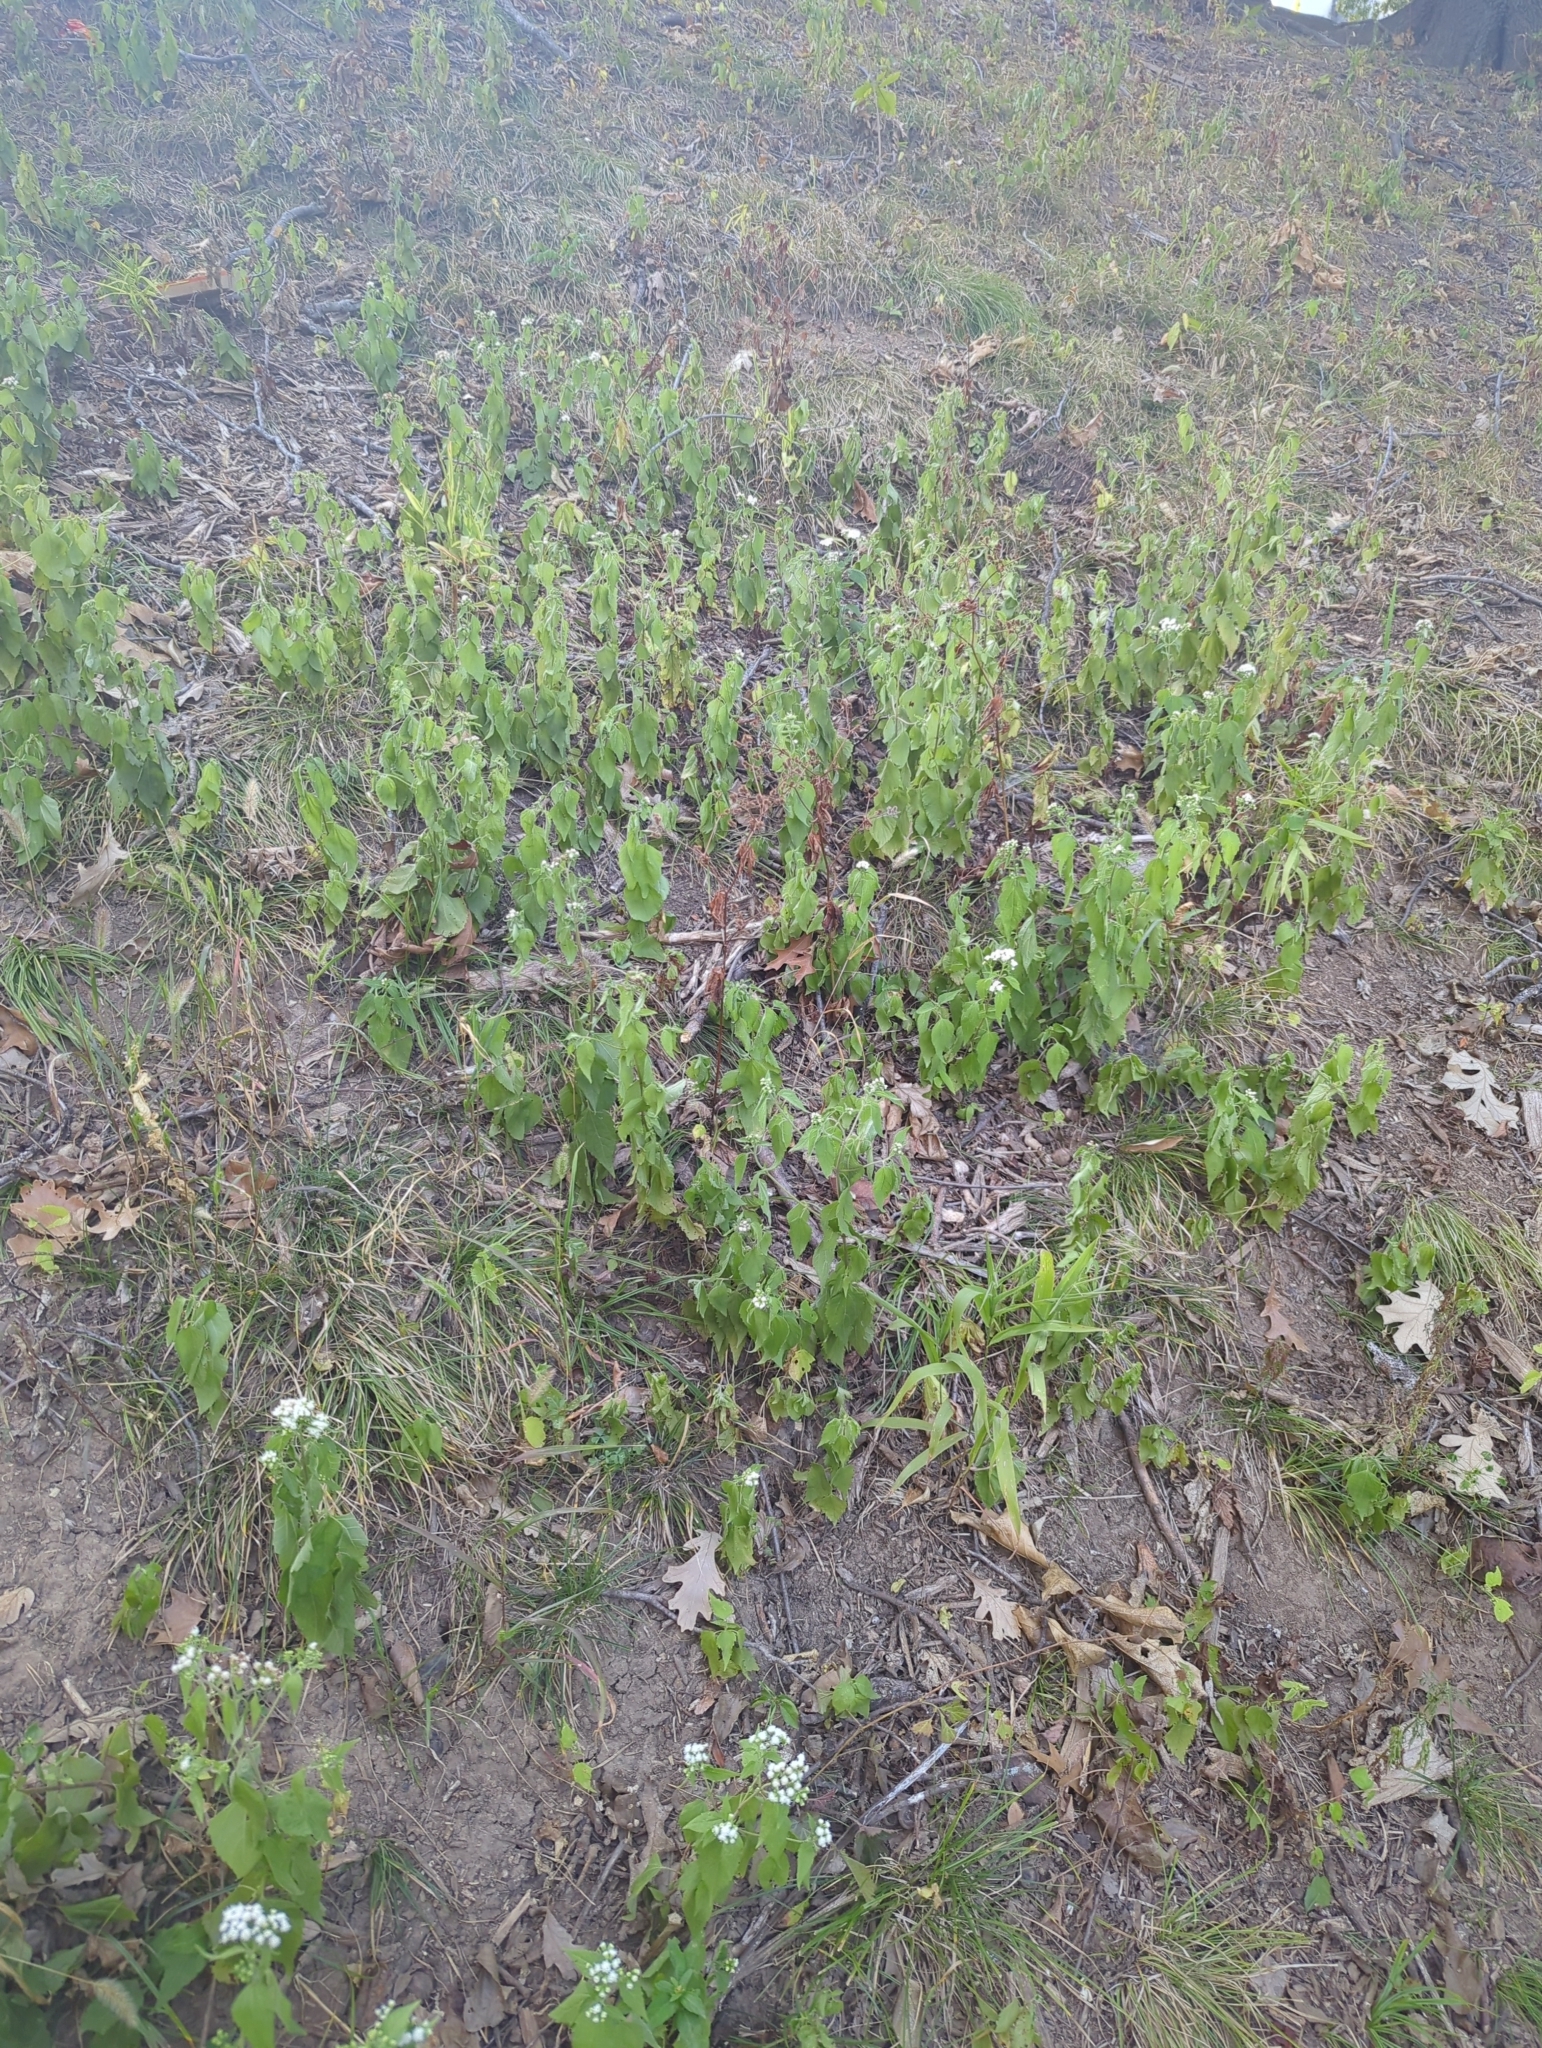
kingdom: Plantae
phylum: Tracheophyta
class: Magnoliopsida
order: Asterales
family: Asteraceae
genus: Ageratina
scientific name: Ageratina altissima
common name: White snakeroot
